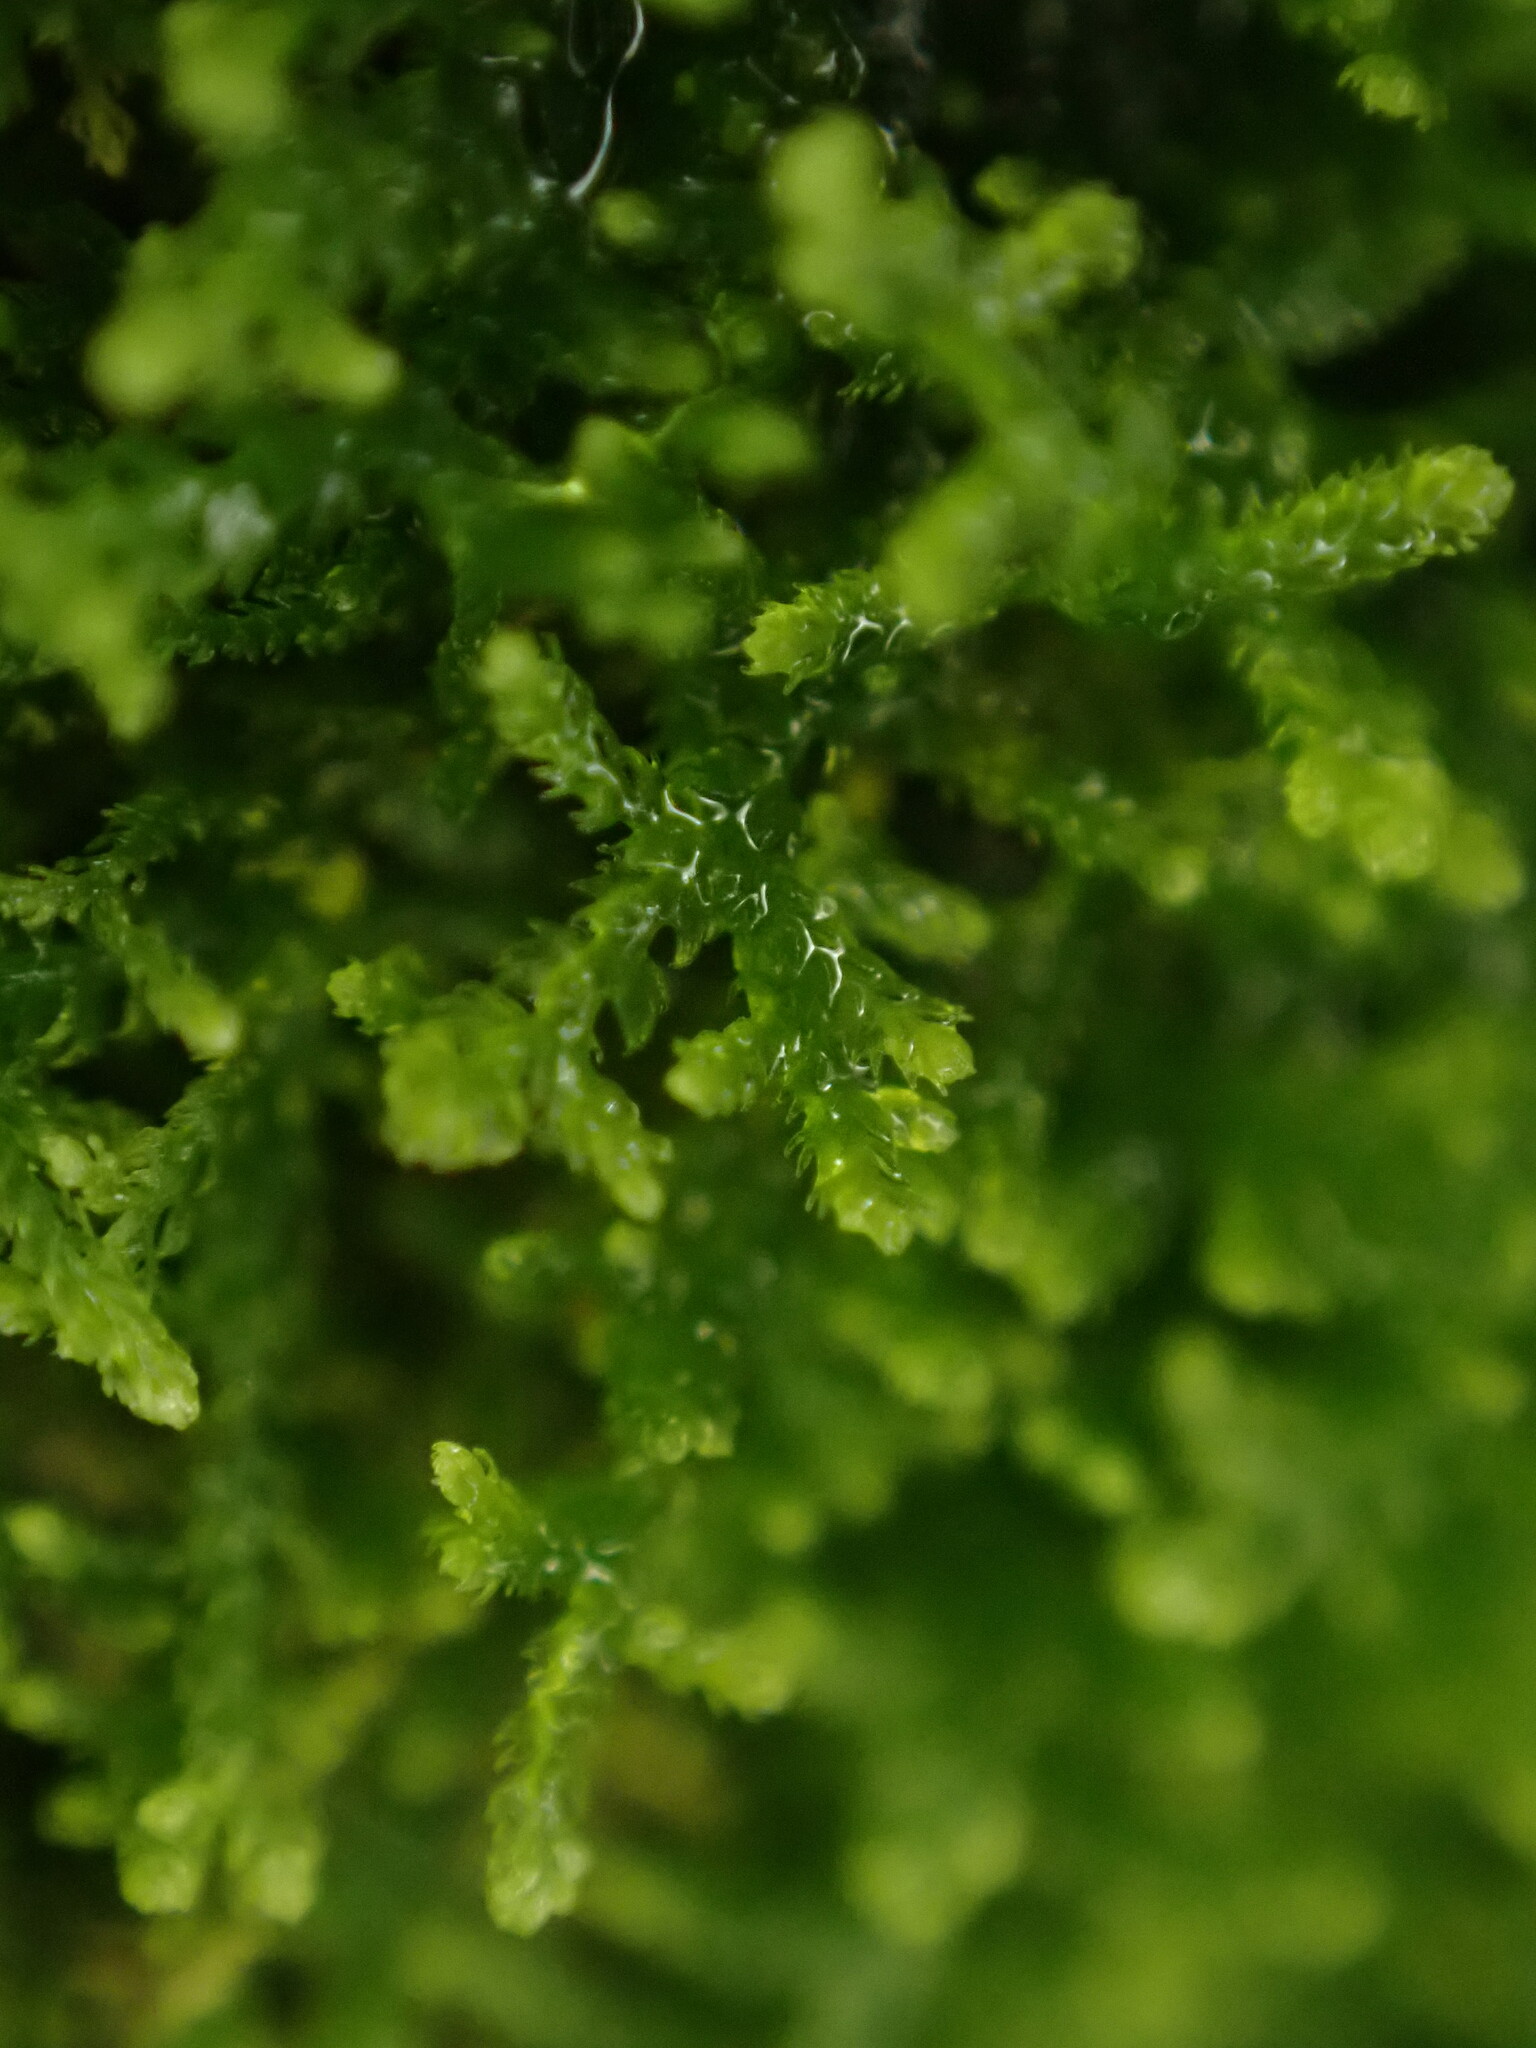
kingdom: Plantae
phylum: Marchantiophyta
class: Jungermanniopsida
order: Jungermanniales
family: Lepidoziaceae
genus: Lepidozia
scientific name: Lepidozia reptans
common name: Creeping fingerwort
